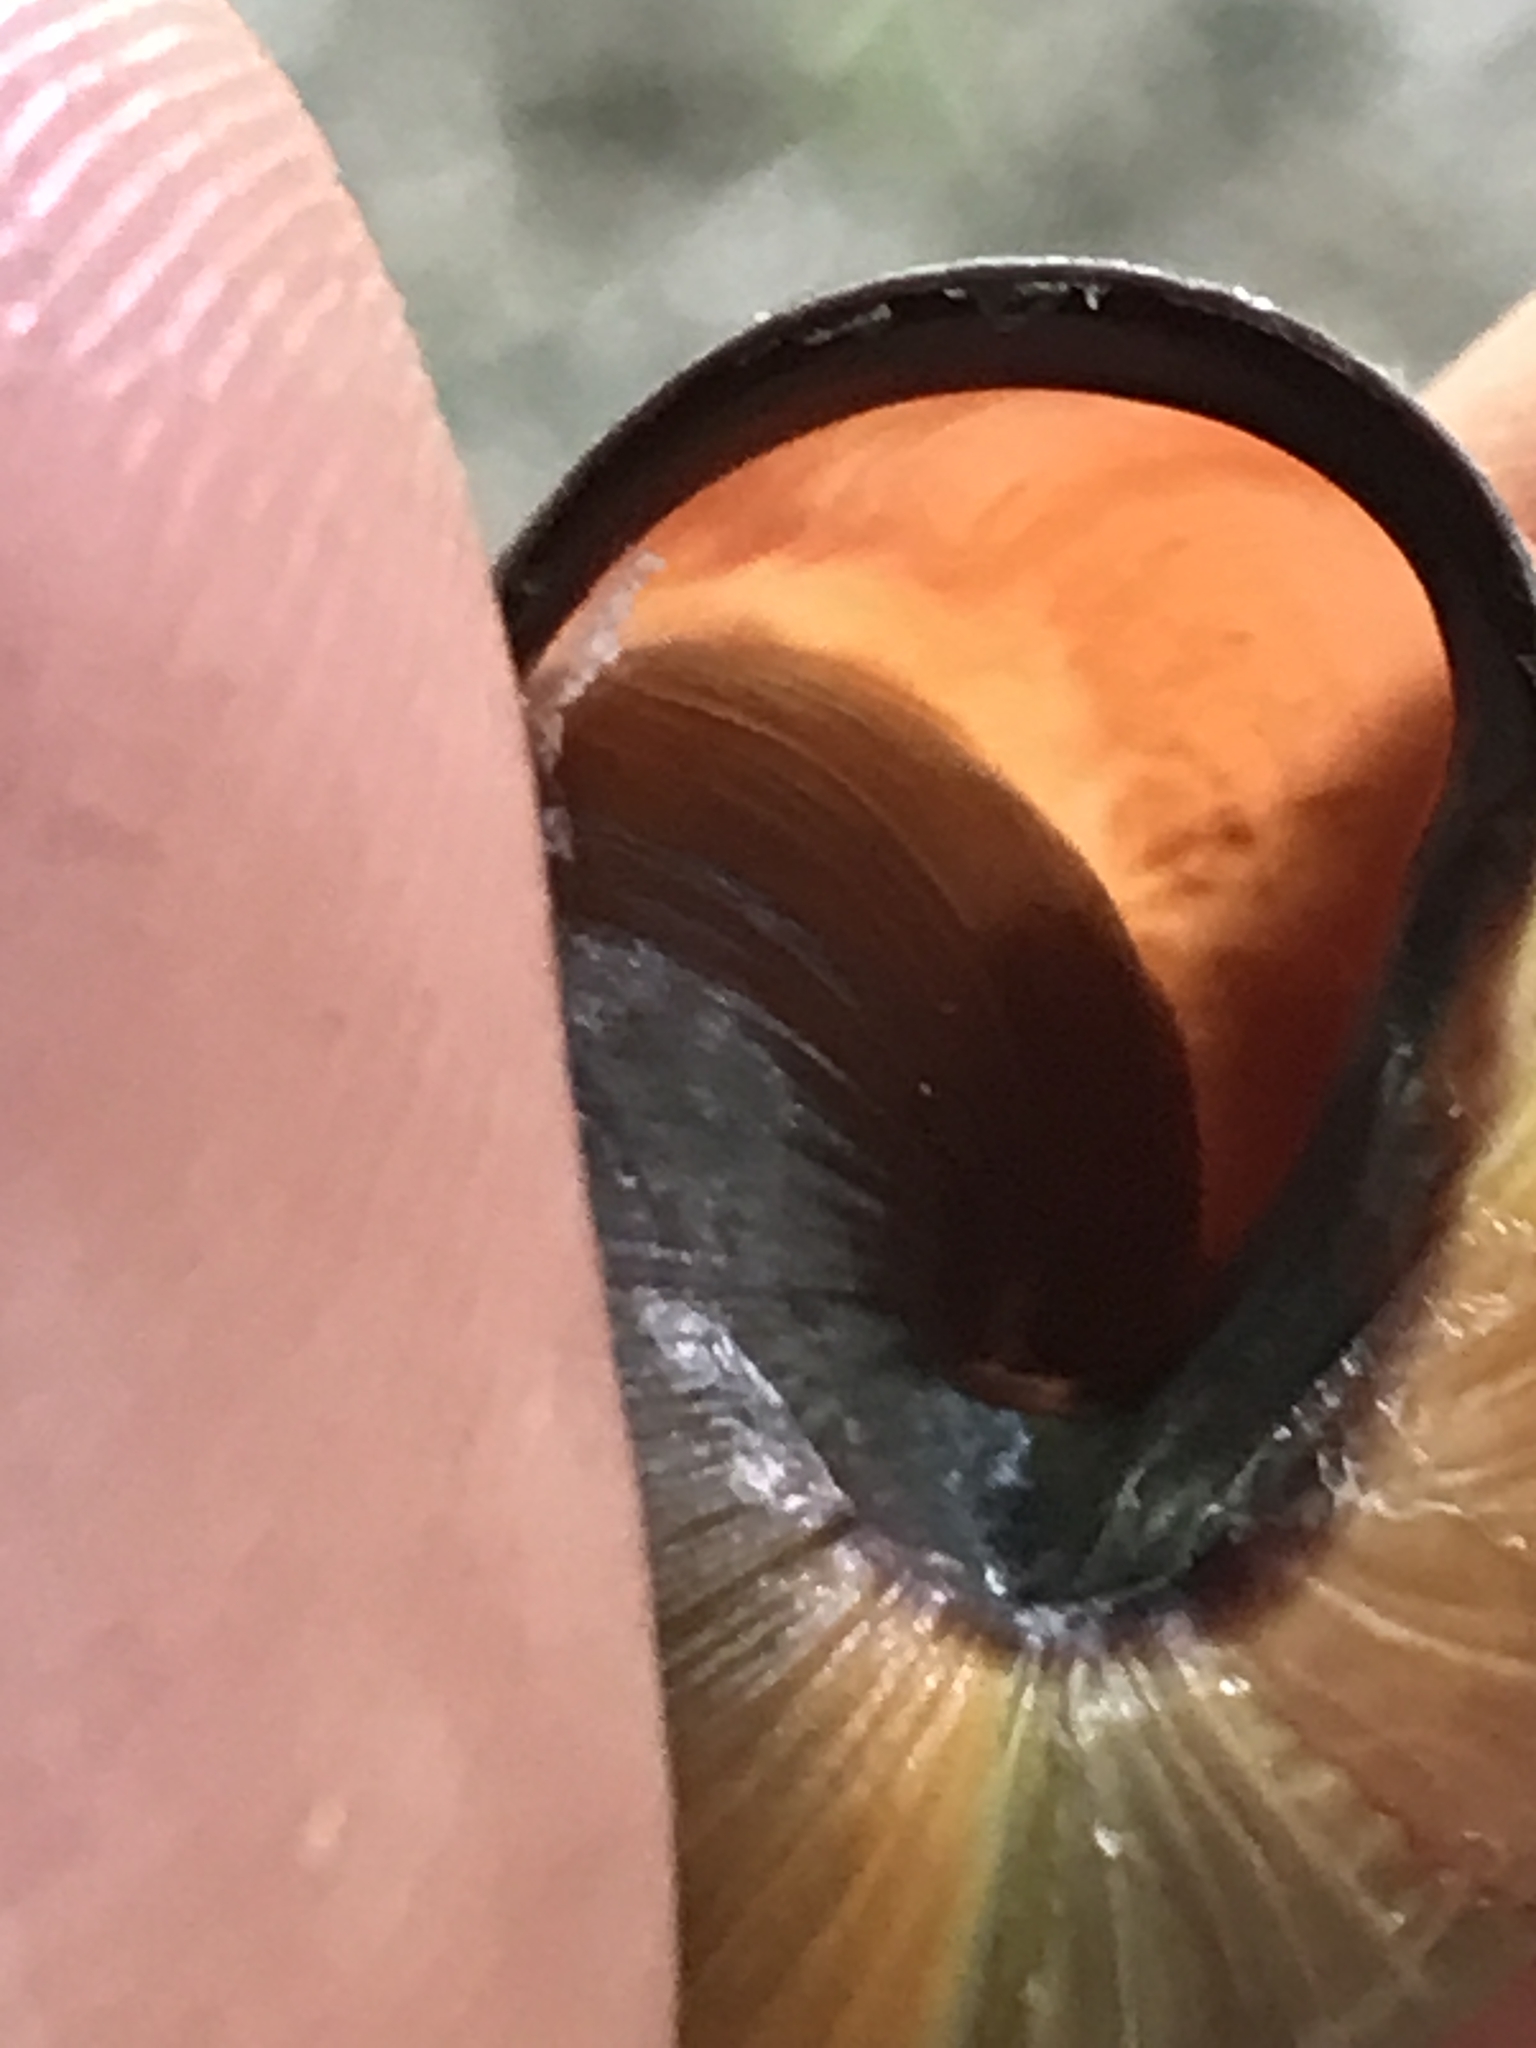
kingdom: Animalia
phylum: Mollusca
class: Gastropoda
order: Stylommatophora
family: Helicidae
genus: Cepaea
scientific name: Cepaea nemoralis
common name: Grovesnail
